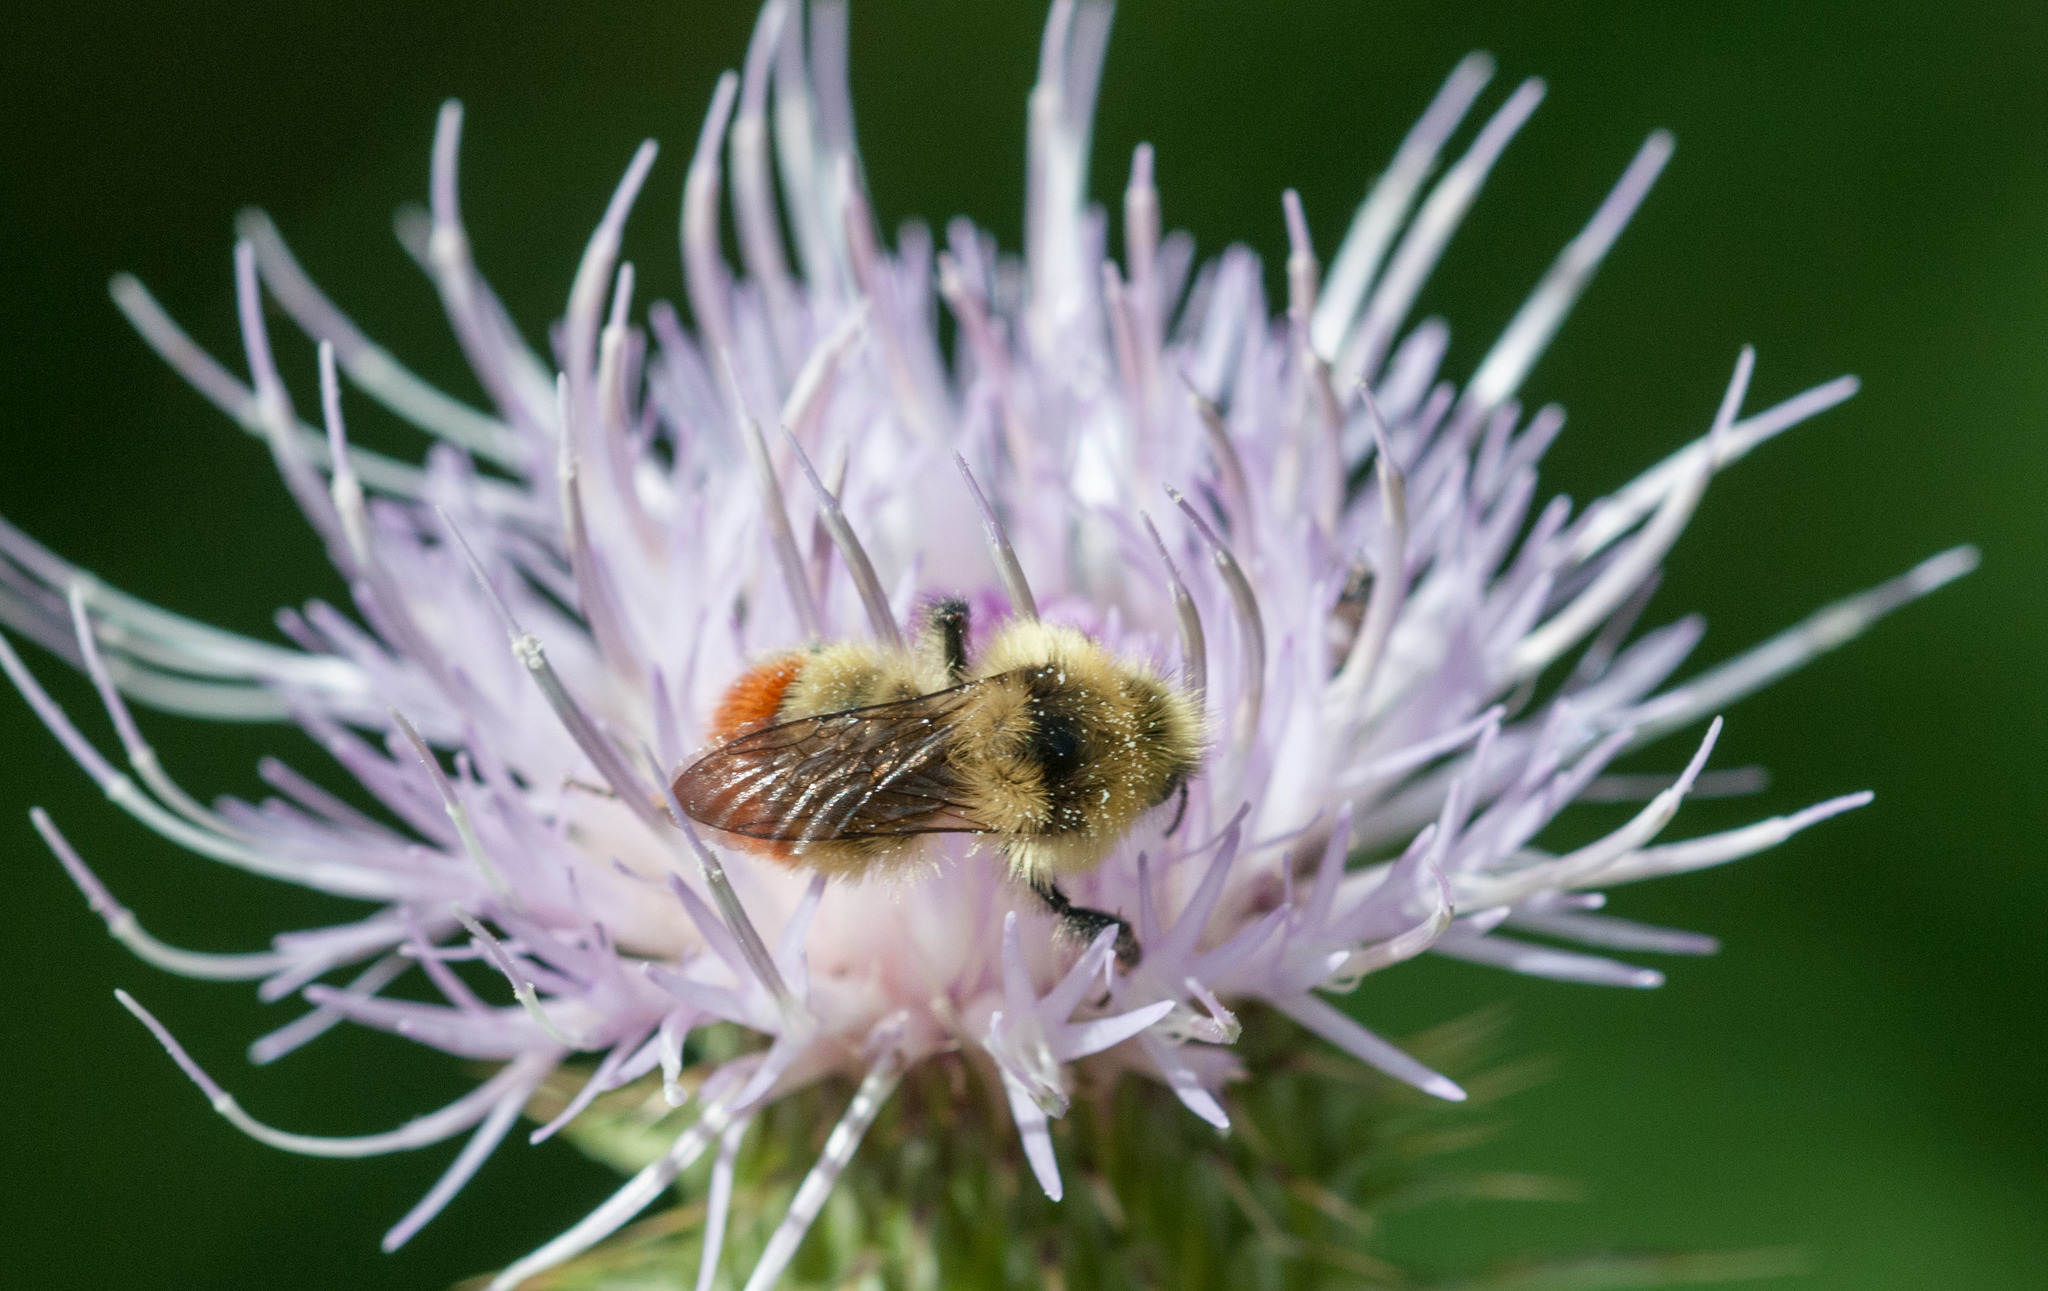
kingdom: Animalia
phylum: Arthropoda
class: Insecta
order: Hymenoptera
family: Apidae
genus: Bombus
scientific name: Bombus centralis
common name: Central bumble bee
